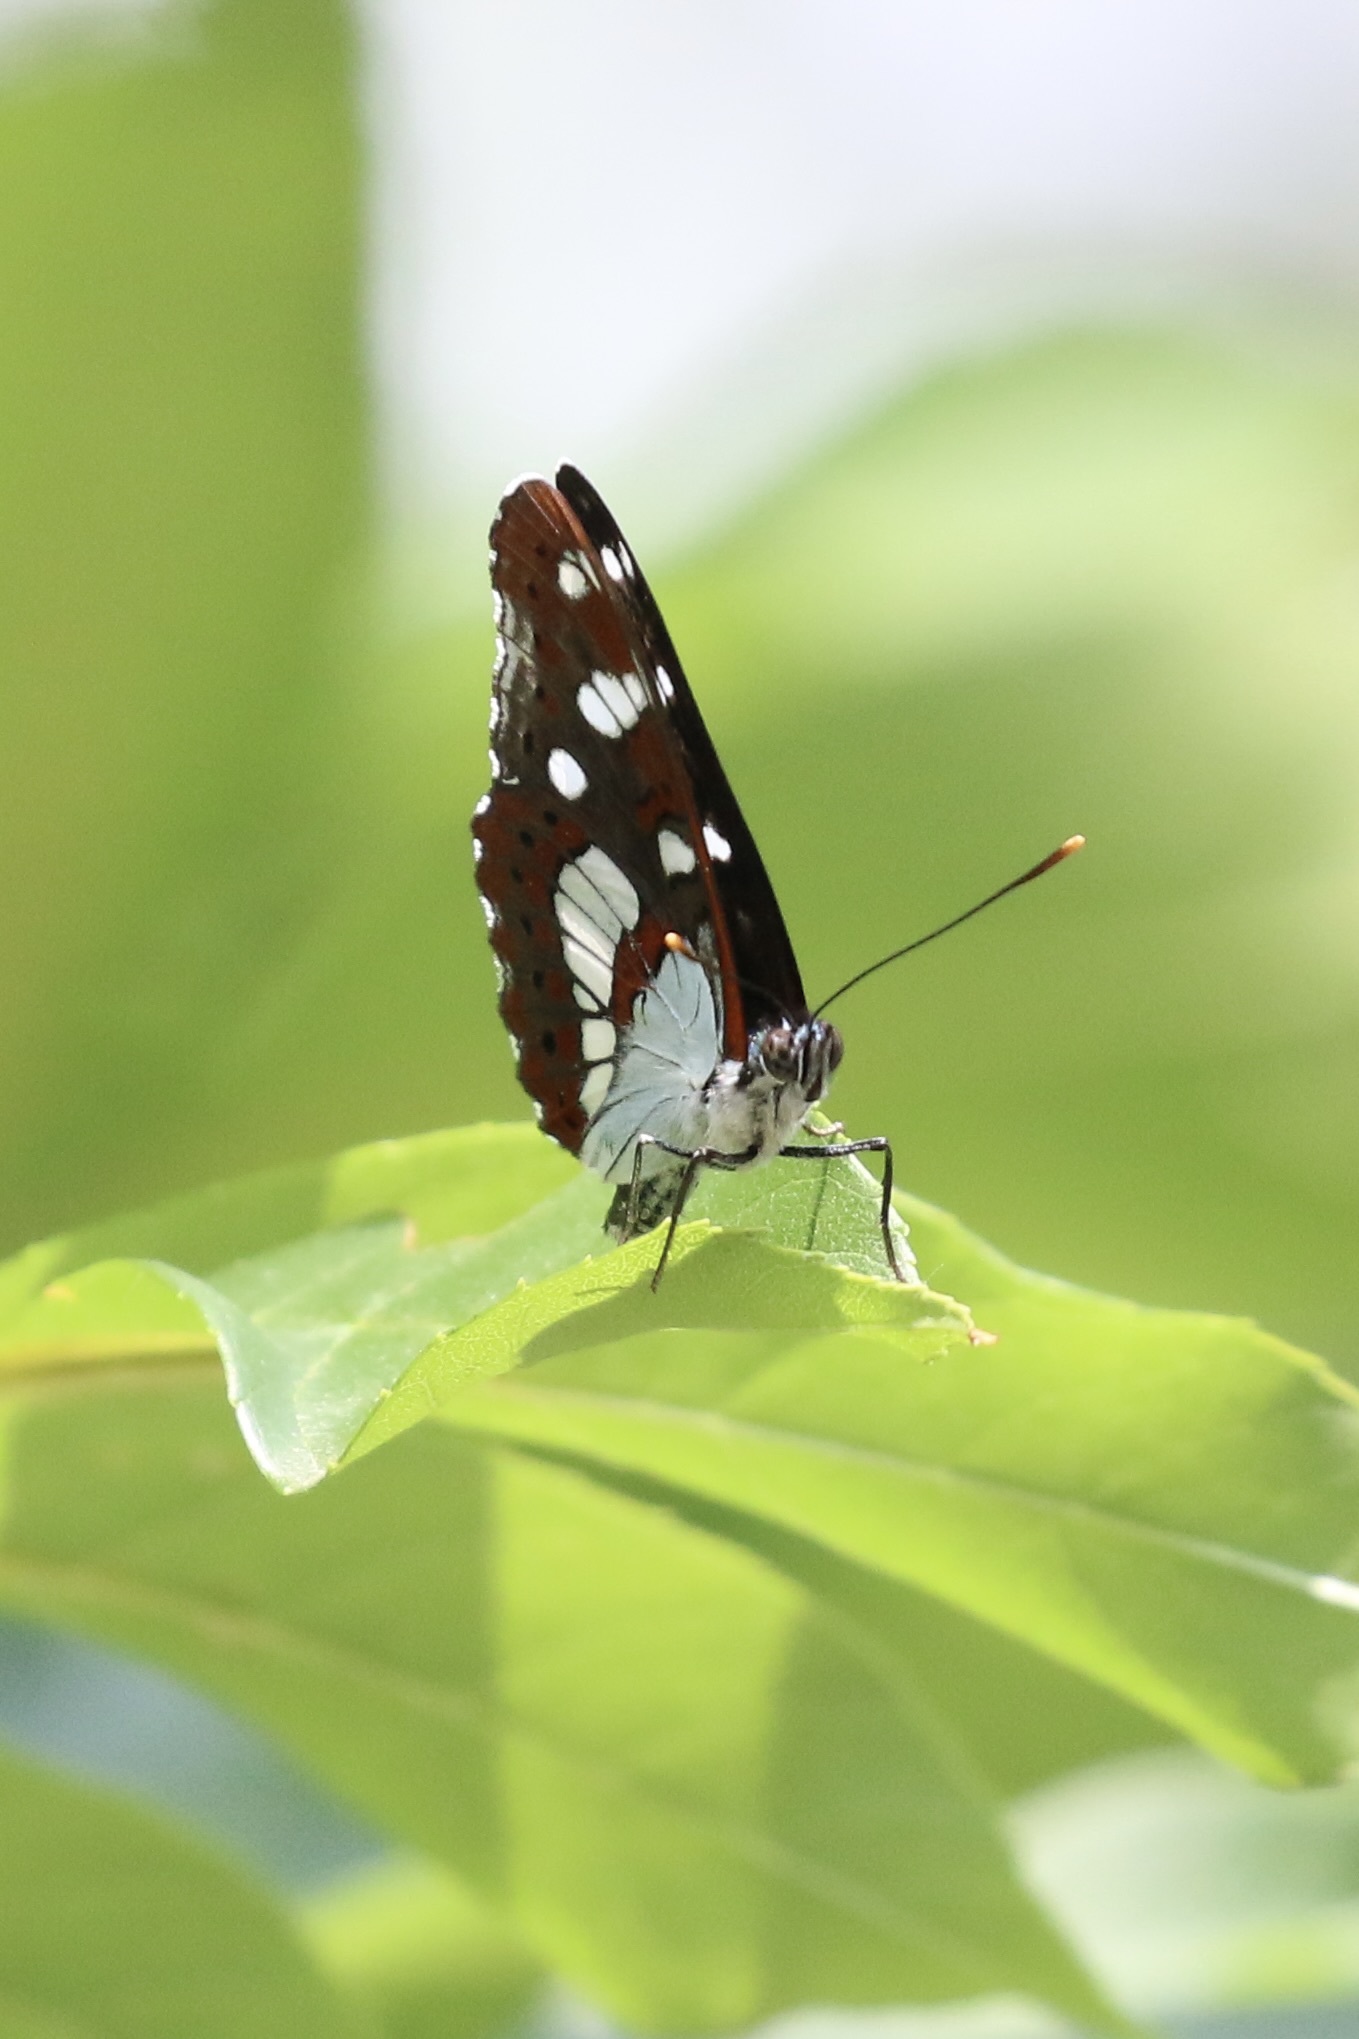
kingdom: Animalia
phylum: Arthropoda
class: Insecta
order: Lepidoptera
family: Nymphalidae
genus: Limenitis
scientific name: Limenitis reducta
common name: Southern white admiral
